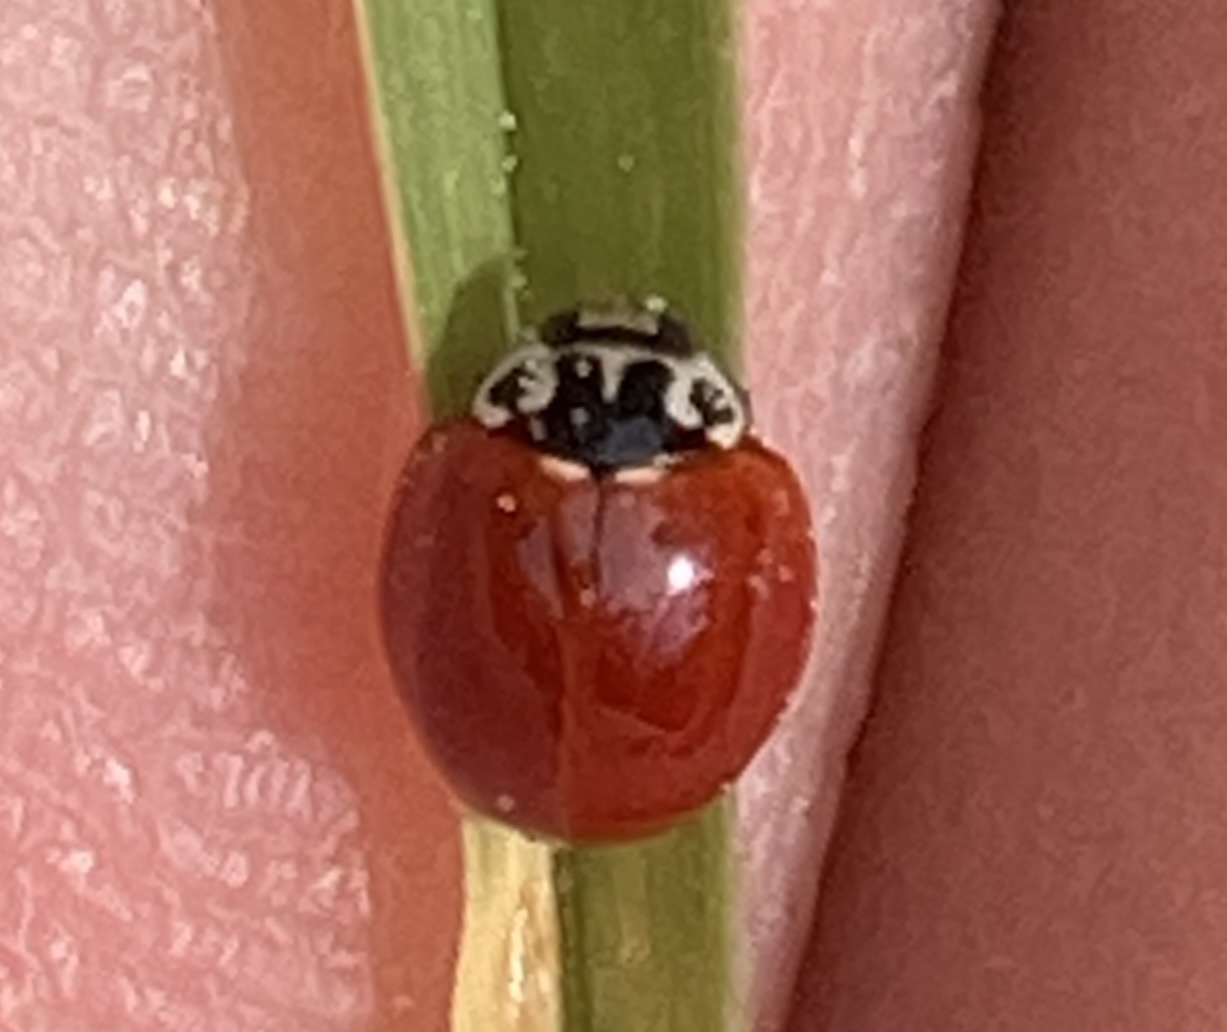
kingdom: Animalia
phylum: Arthropoda
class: Insecta
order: Coleoptera
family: Coccinellidae
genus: Cycloneda
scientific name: Cycloneda polita
